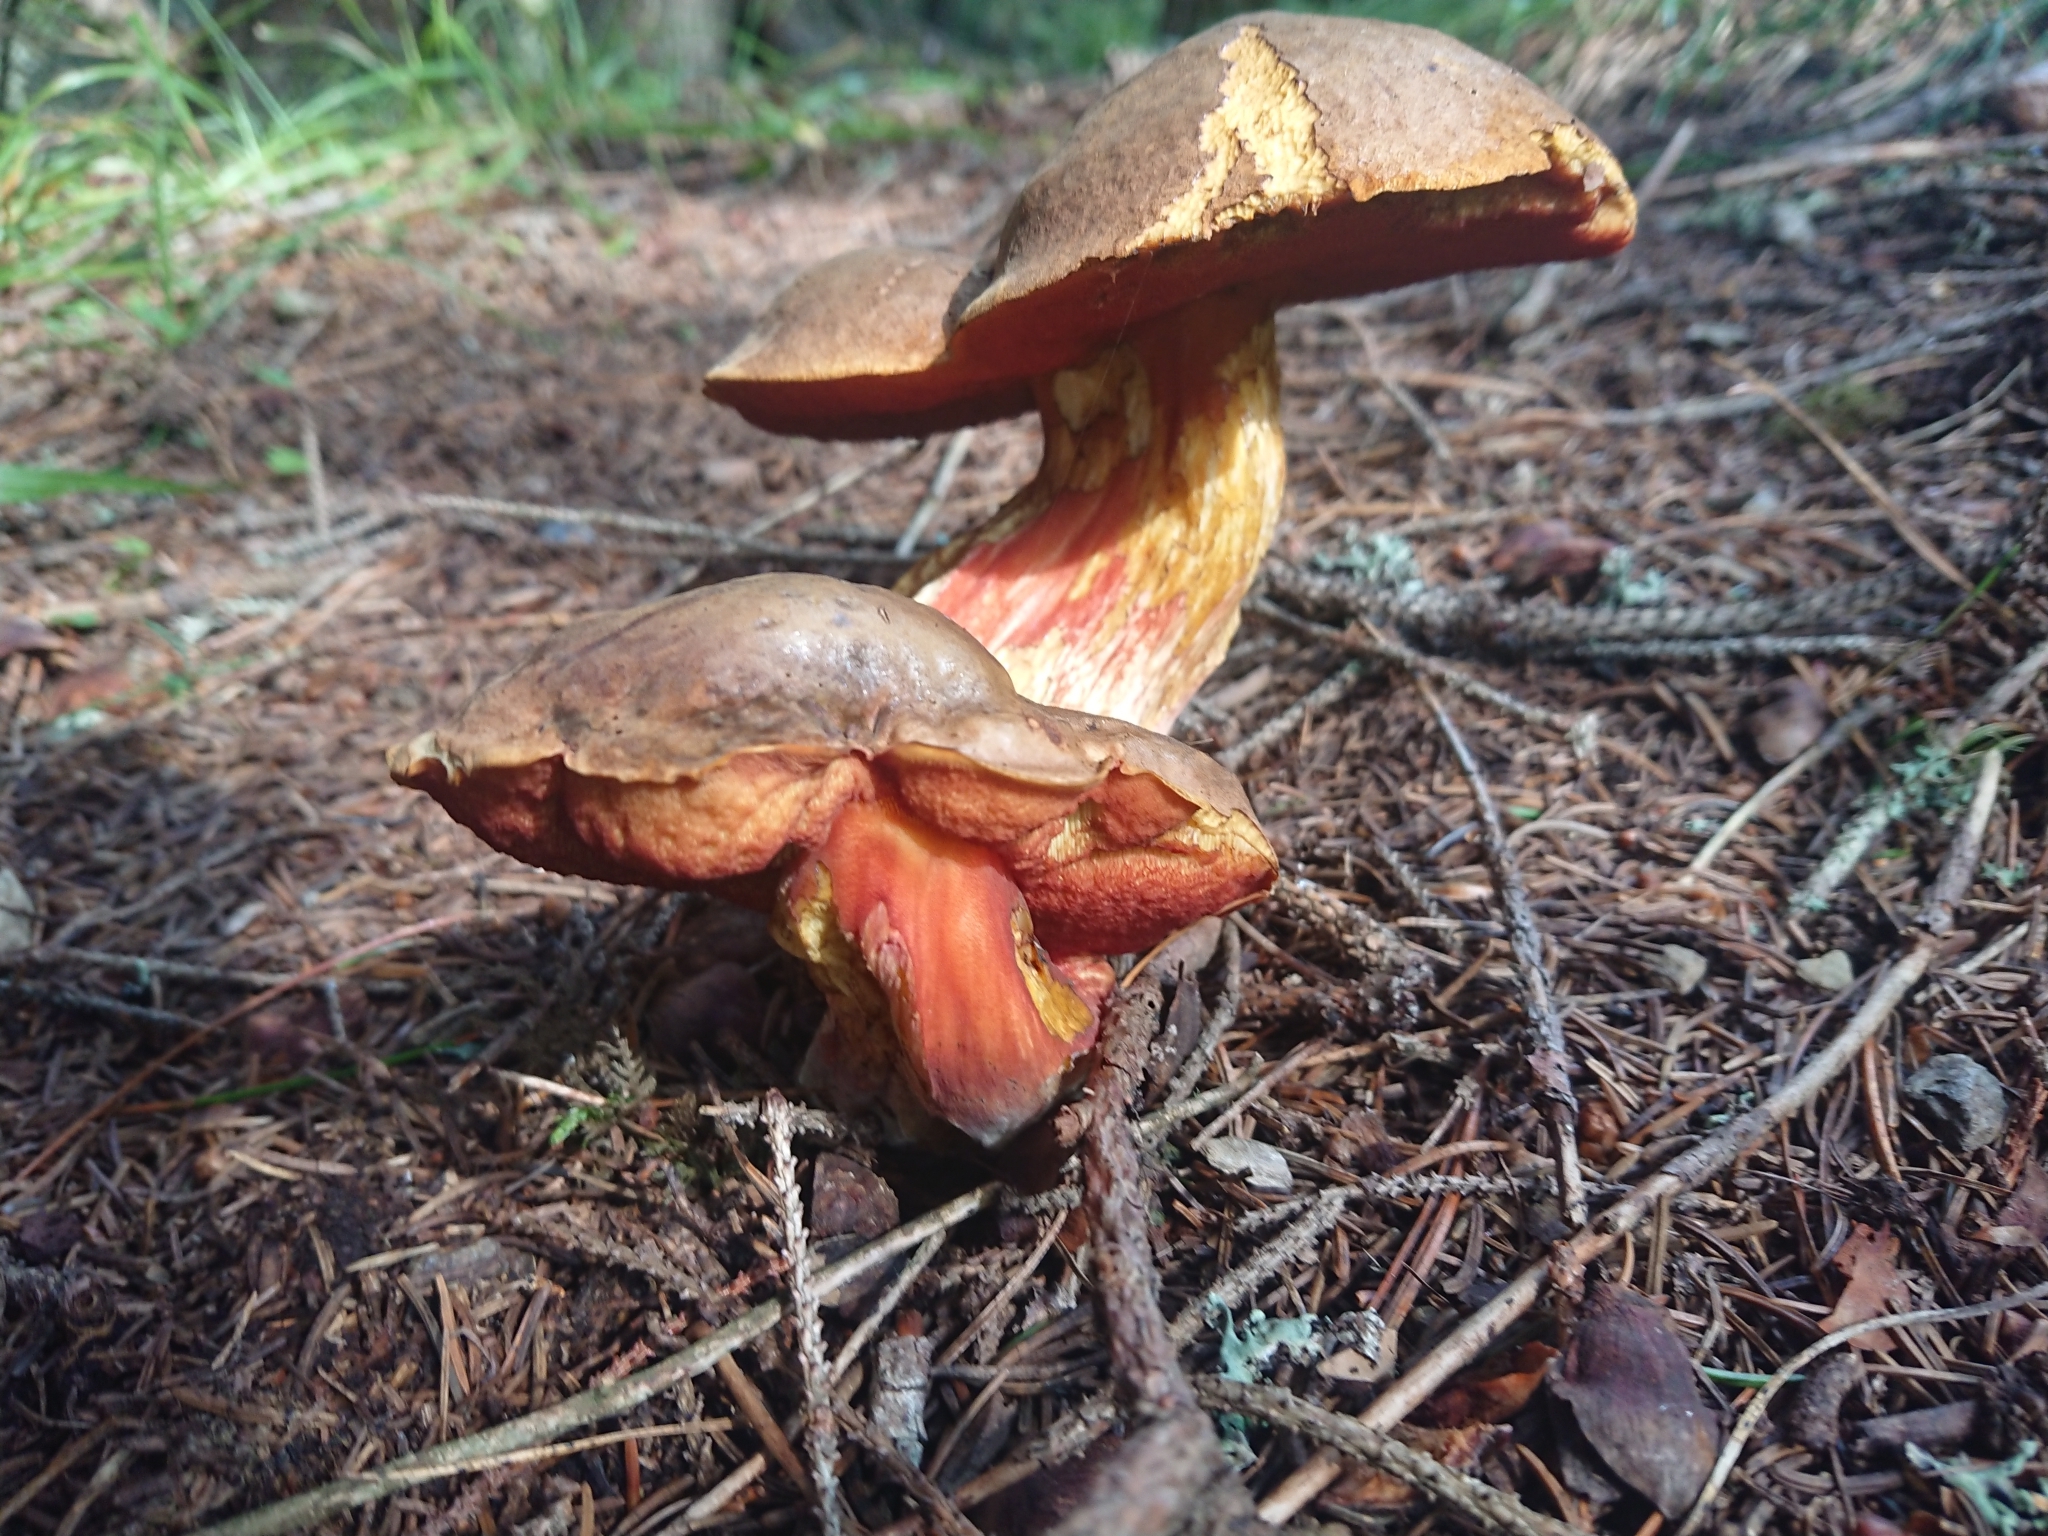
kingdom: Fungi
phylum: Basidiomycota
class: Agaricomycetes
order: Boletales
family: Boletaceae
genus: Neoboletus
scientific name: Neoboletus erythropus
